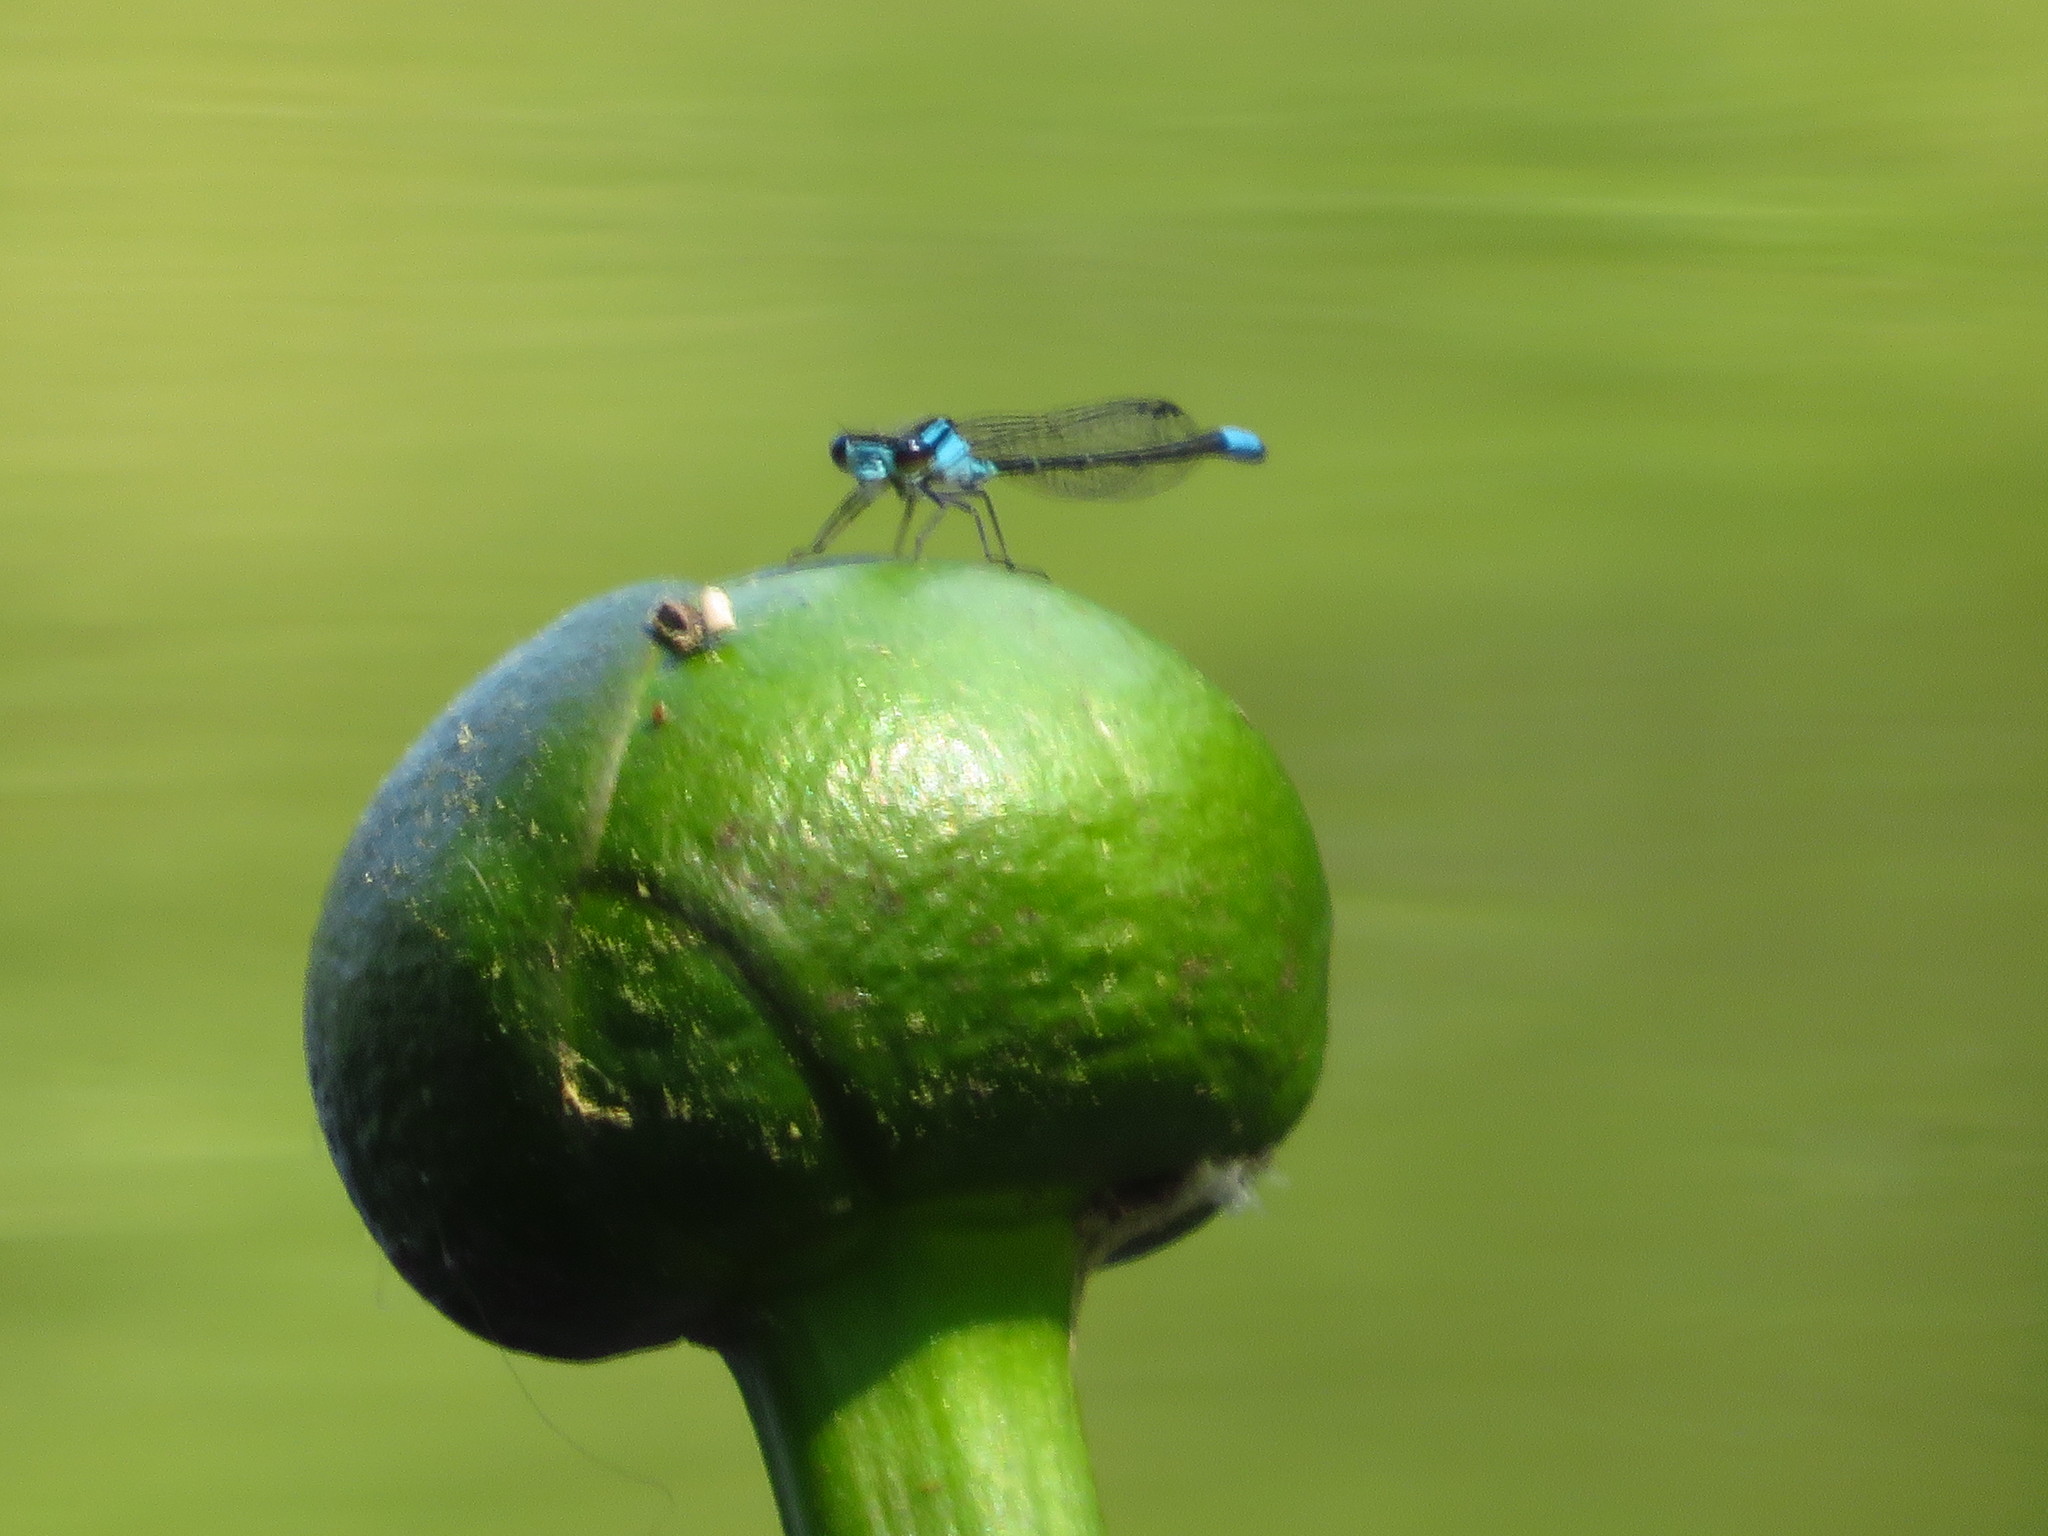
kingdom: Animalia
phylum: Arthropoda
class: Insecta
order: Odonata
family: Coenagrionidae
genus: Enallagma
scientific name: Enallagma geminatum
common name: Skimming bluet
